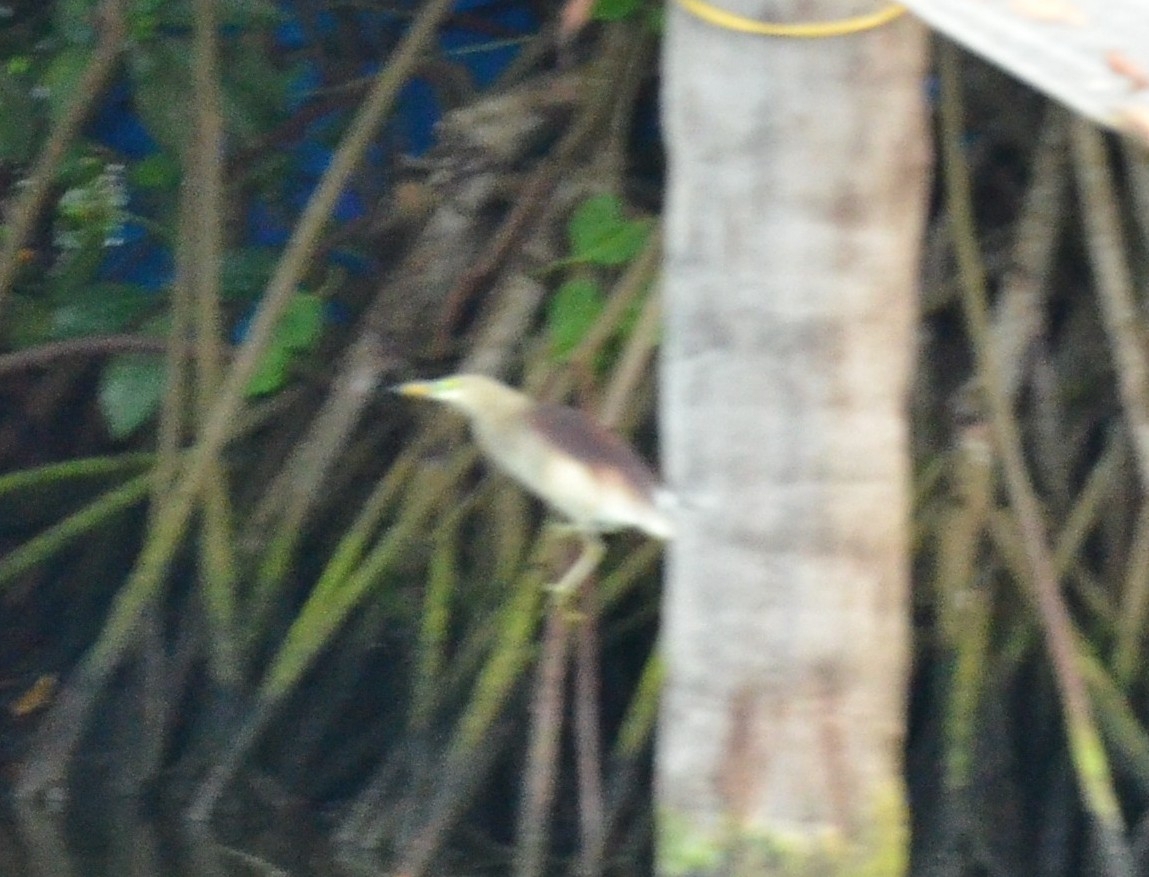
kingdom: Animalia
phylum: Chordata
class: Aves
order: Pelecaniformes
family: Ardeidae
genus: Ardeola
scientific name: Ardeola grayii
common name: Indian pond heron
